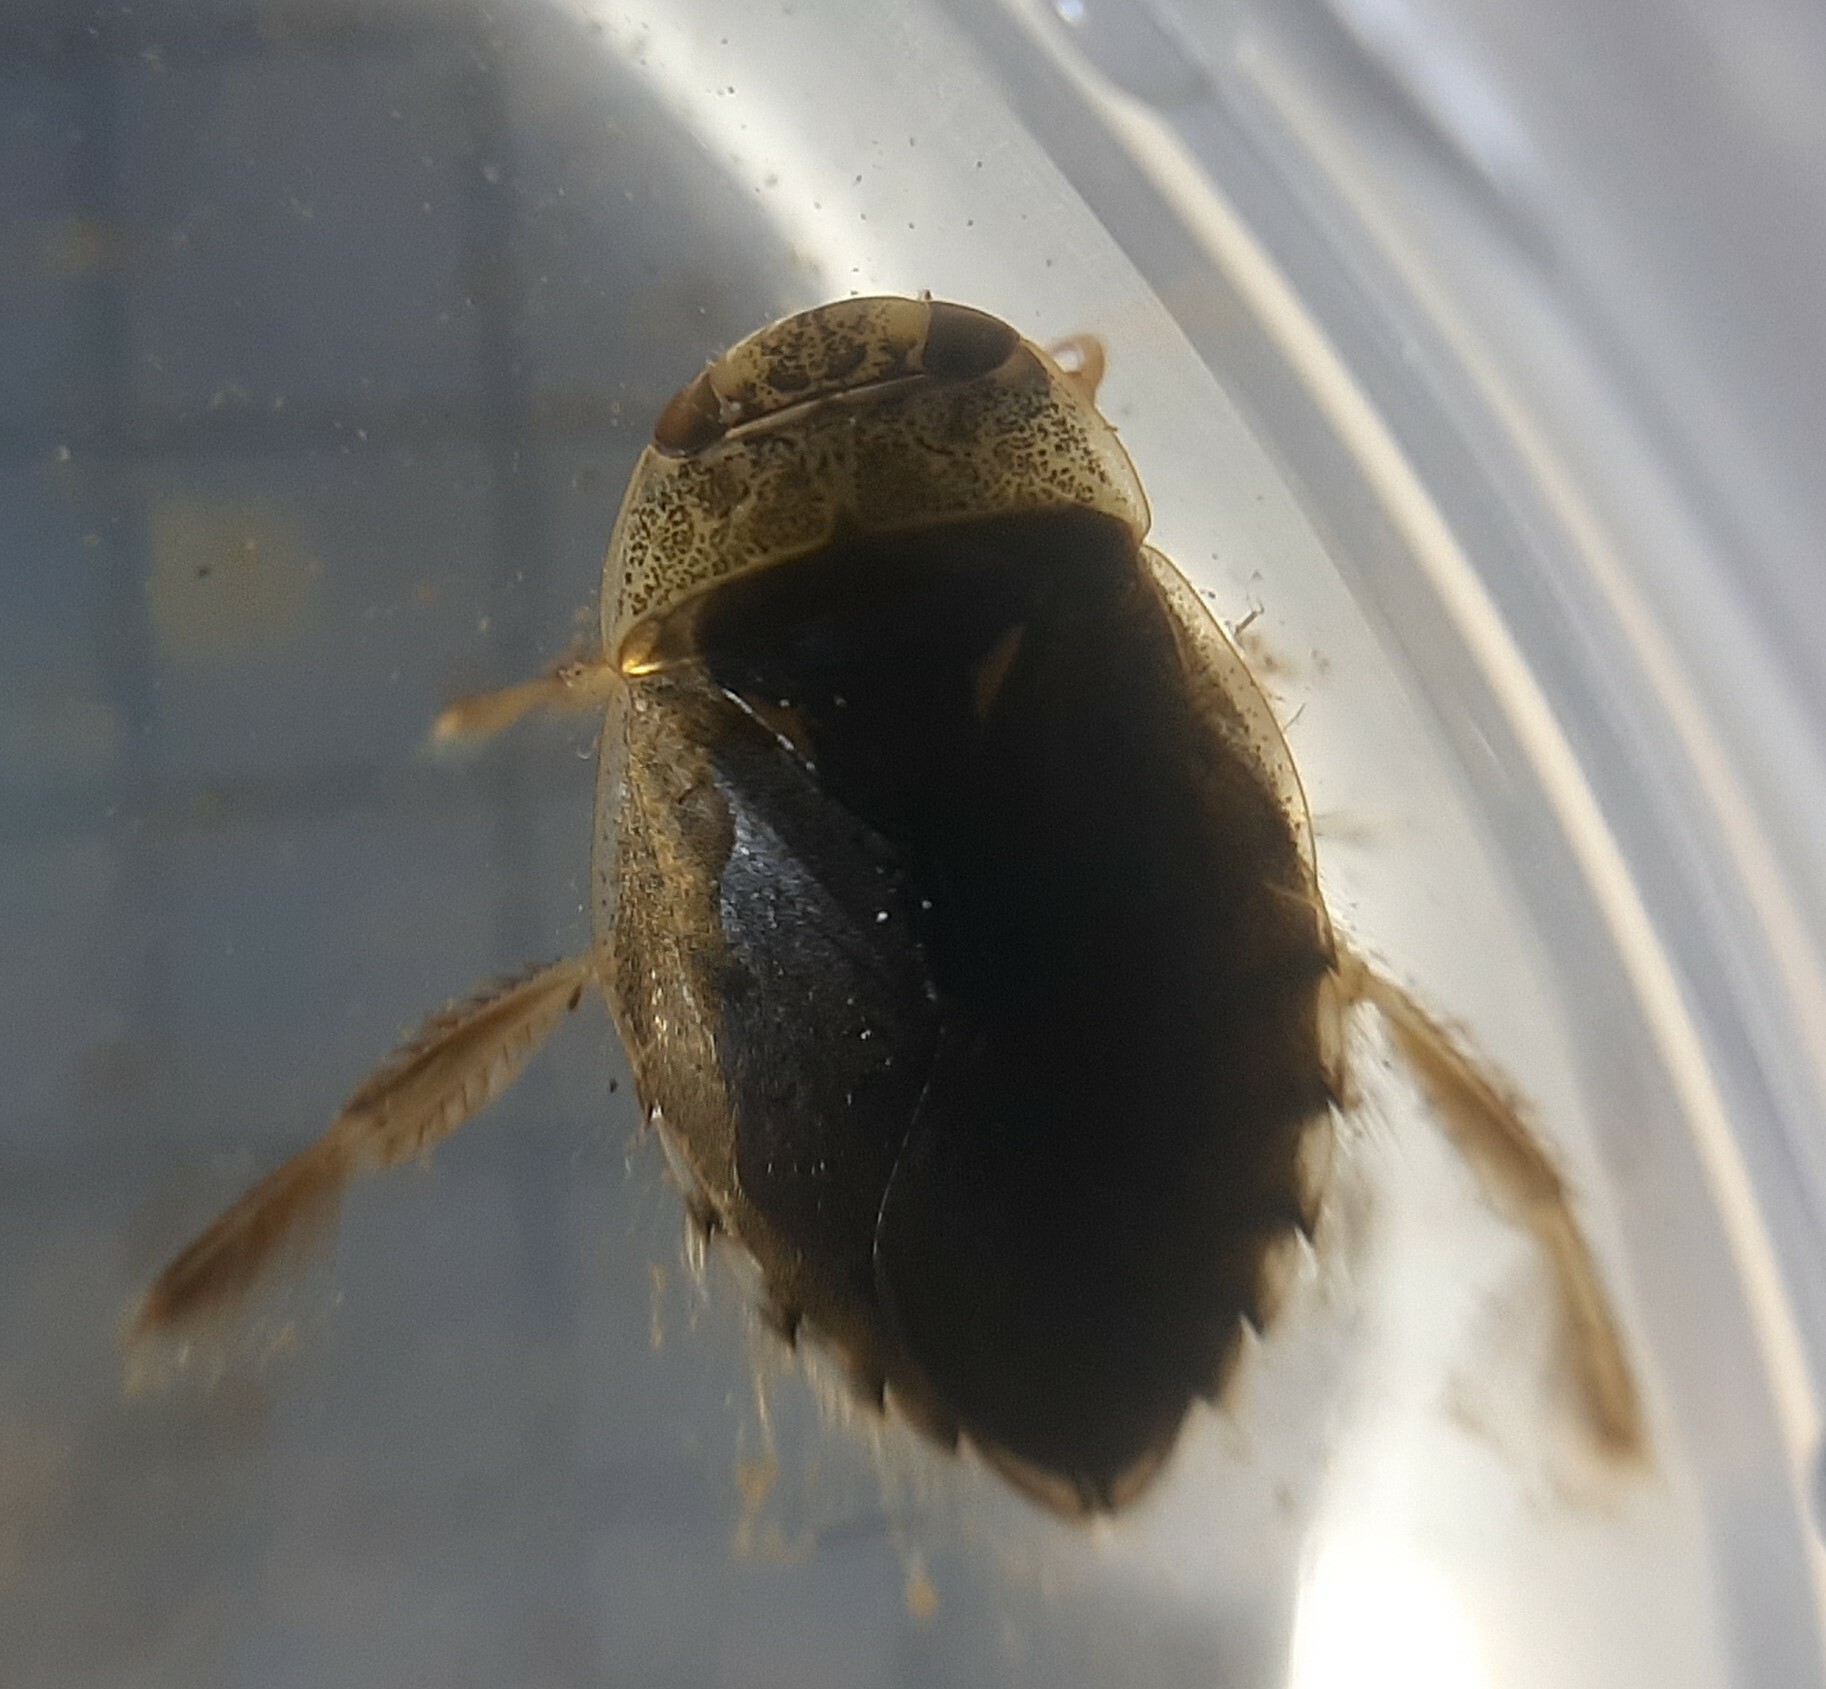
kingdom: Animalia
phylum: Arthropoda
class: Insecta
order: Hemiptera
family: Naucoridae
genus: Ilyocoris
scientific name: Ilyocoris cimicoides
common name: Saucer bugs
